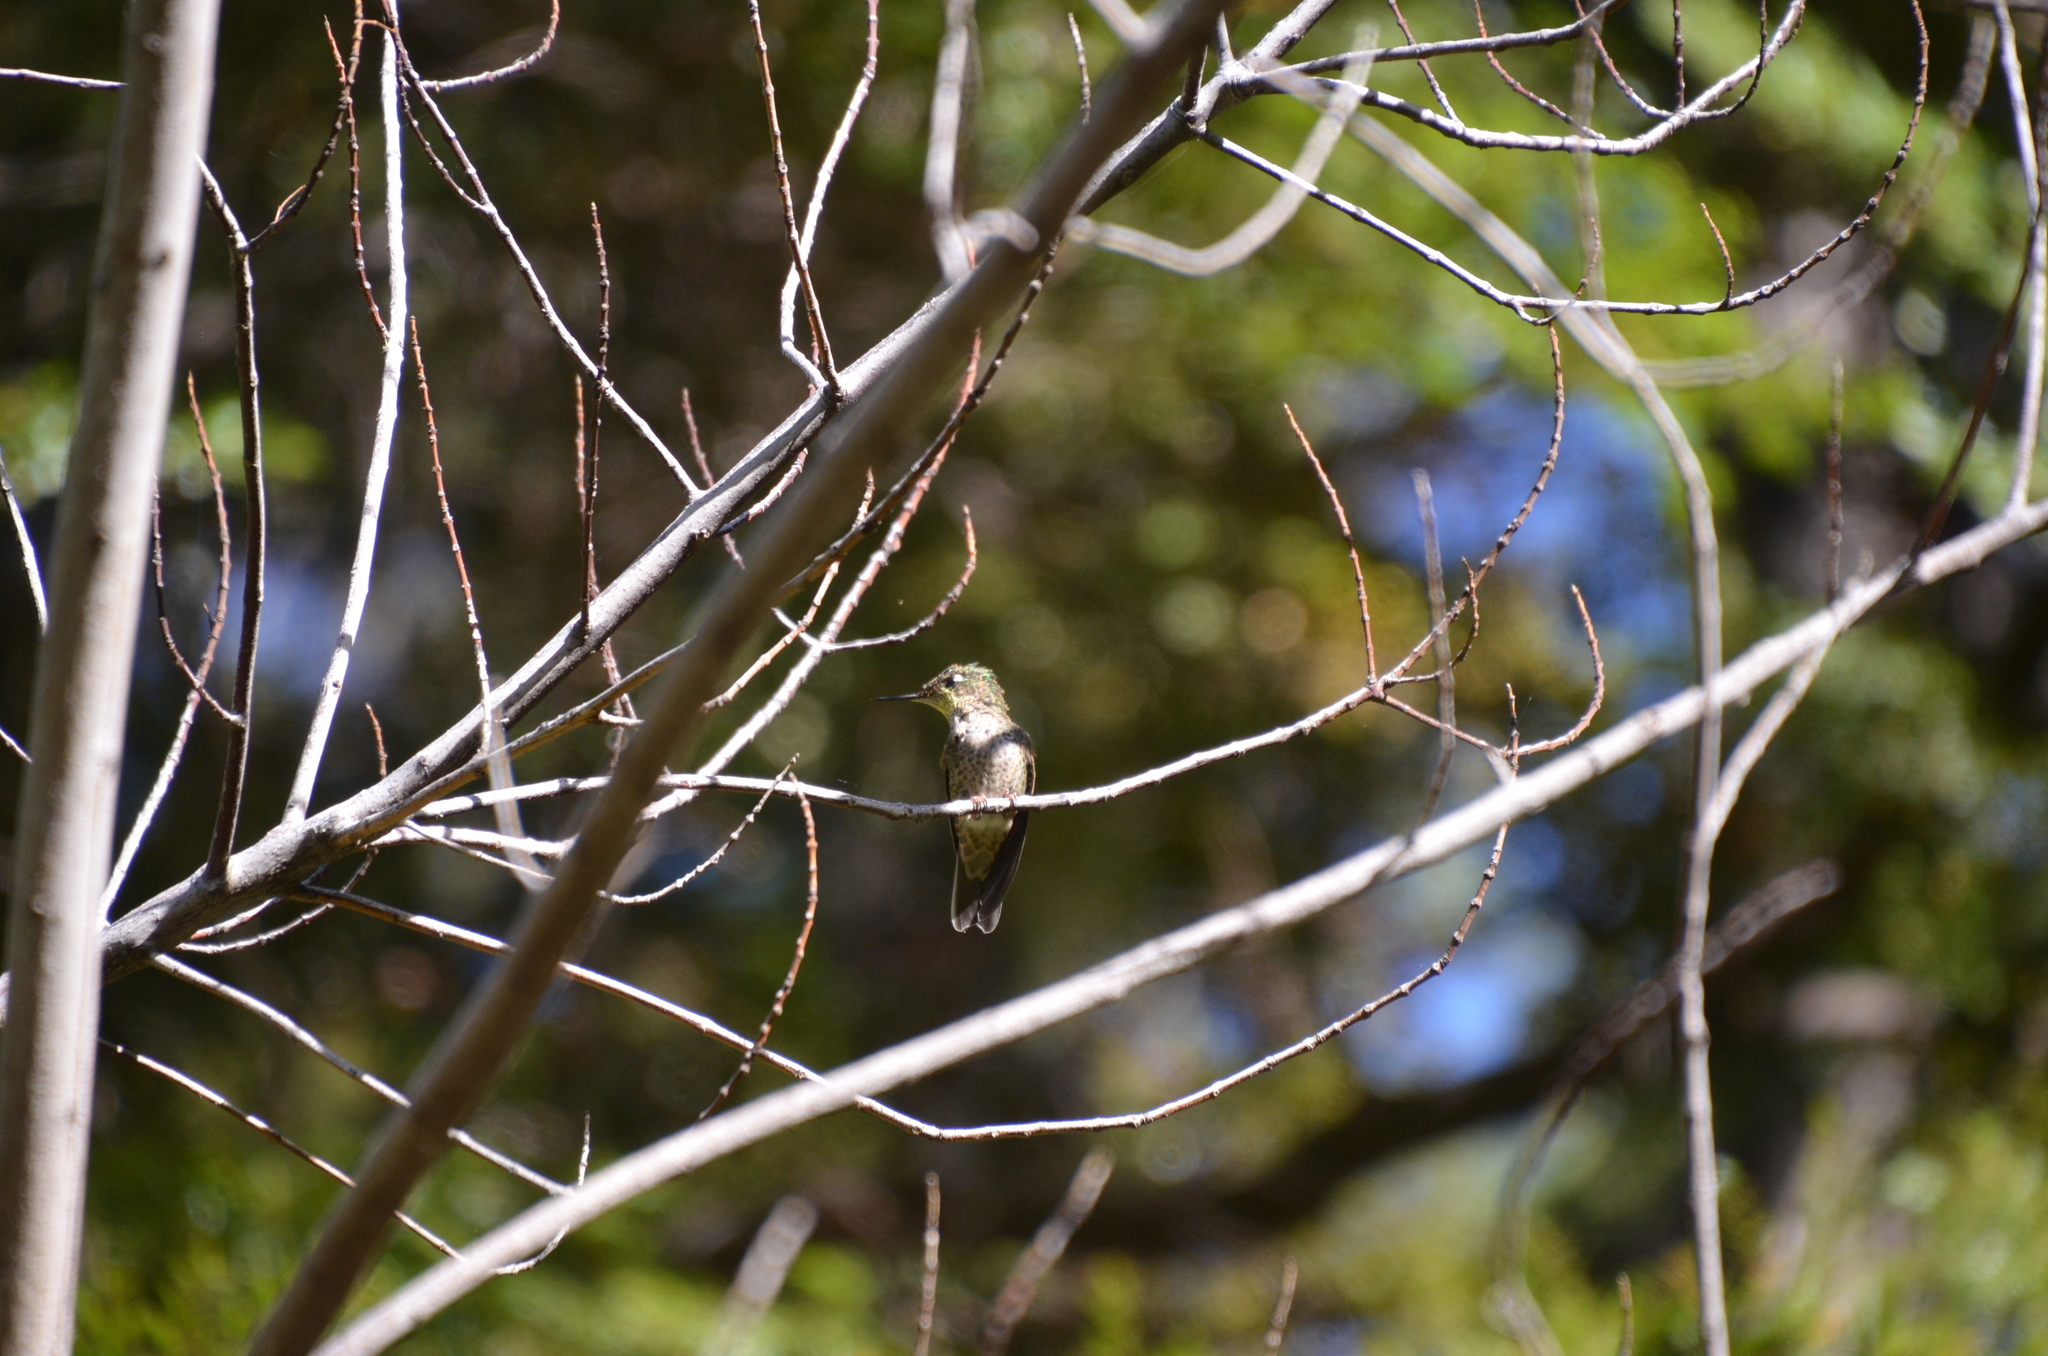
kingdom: Animalia
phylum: Chordata
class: Aves
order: Apodiformes
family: Trochilidae
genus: Sephanoides
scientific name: Sephanoides sephaniodes
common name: Green-backed firecrown
